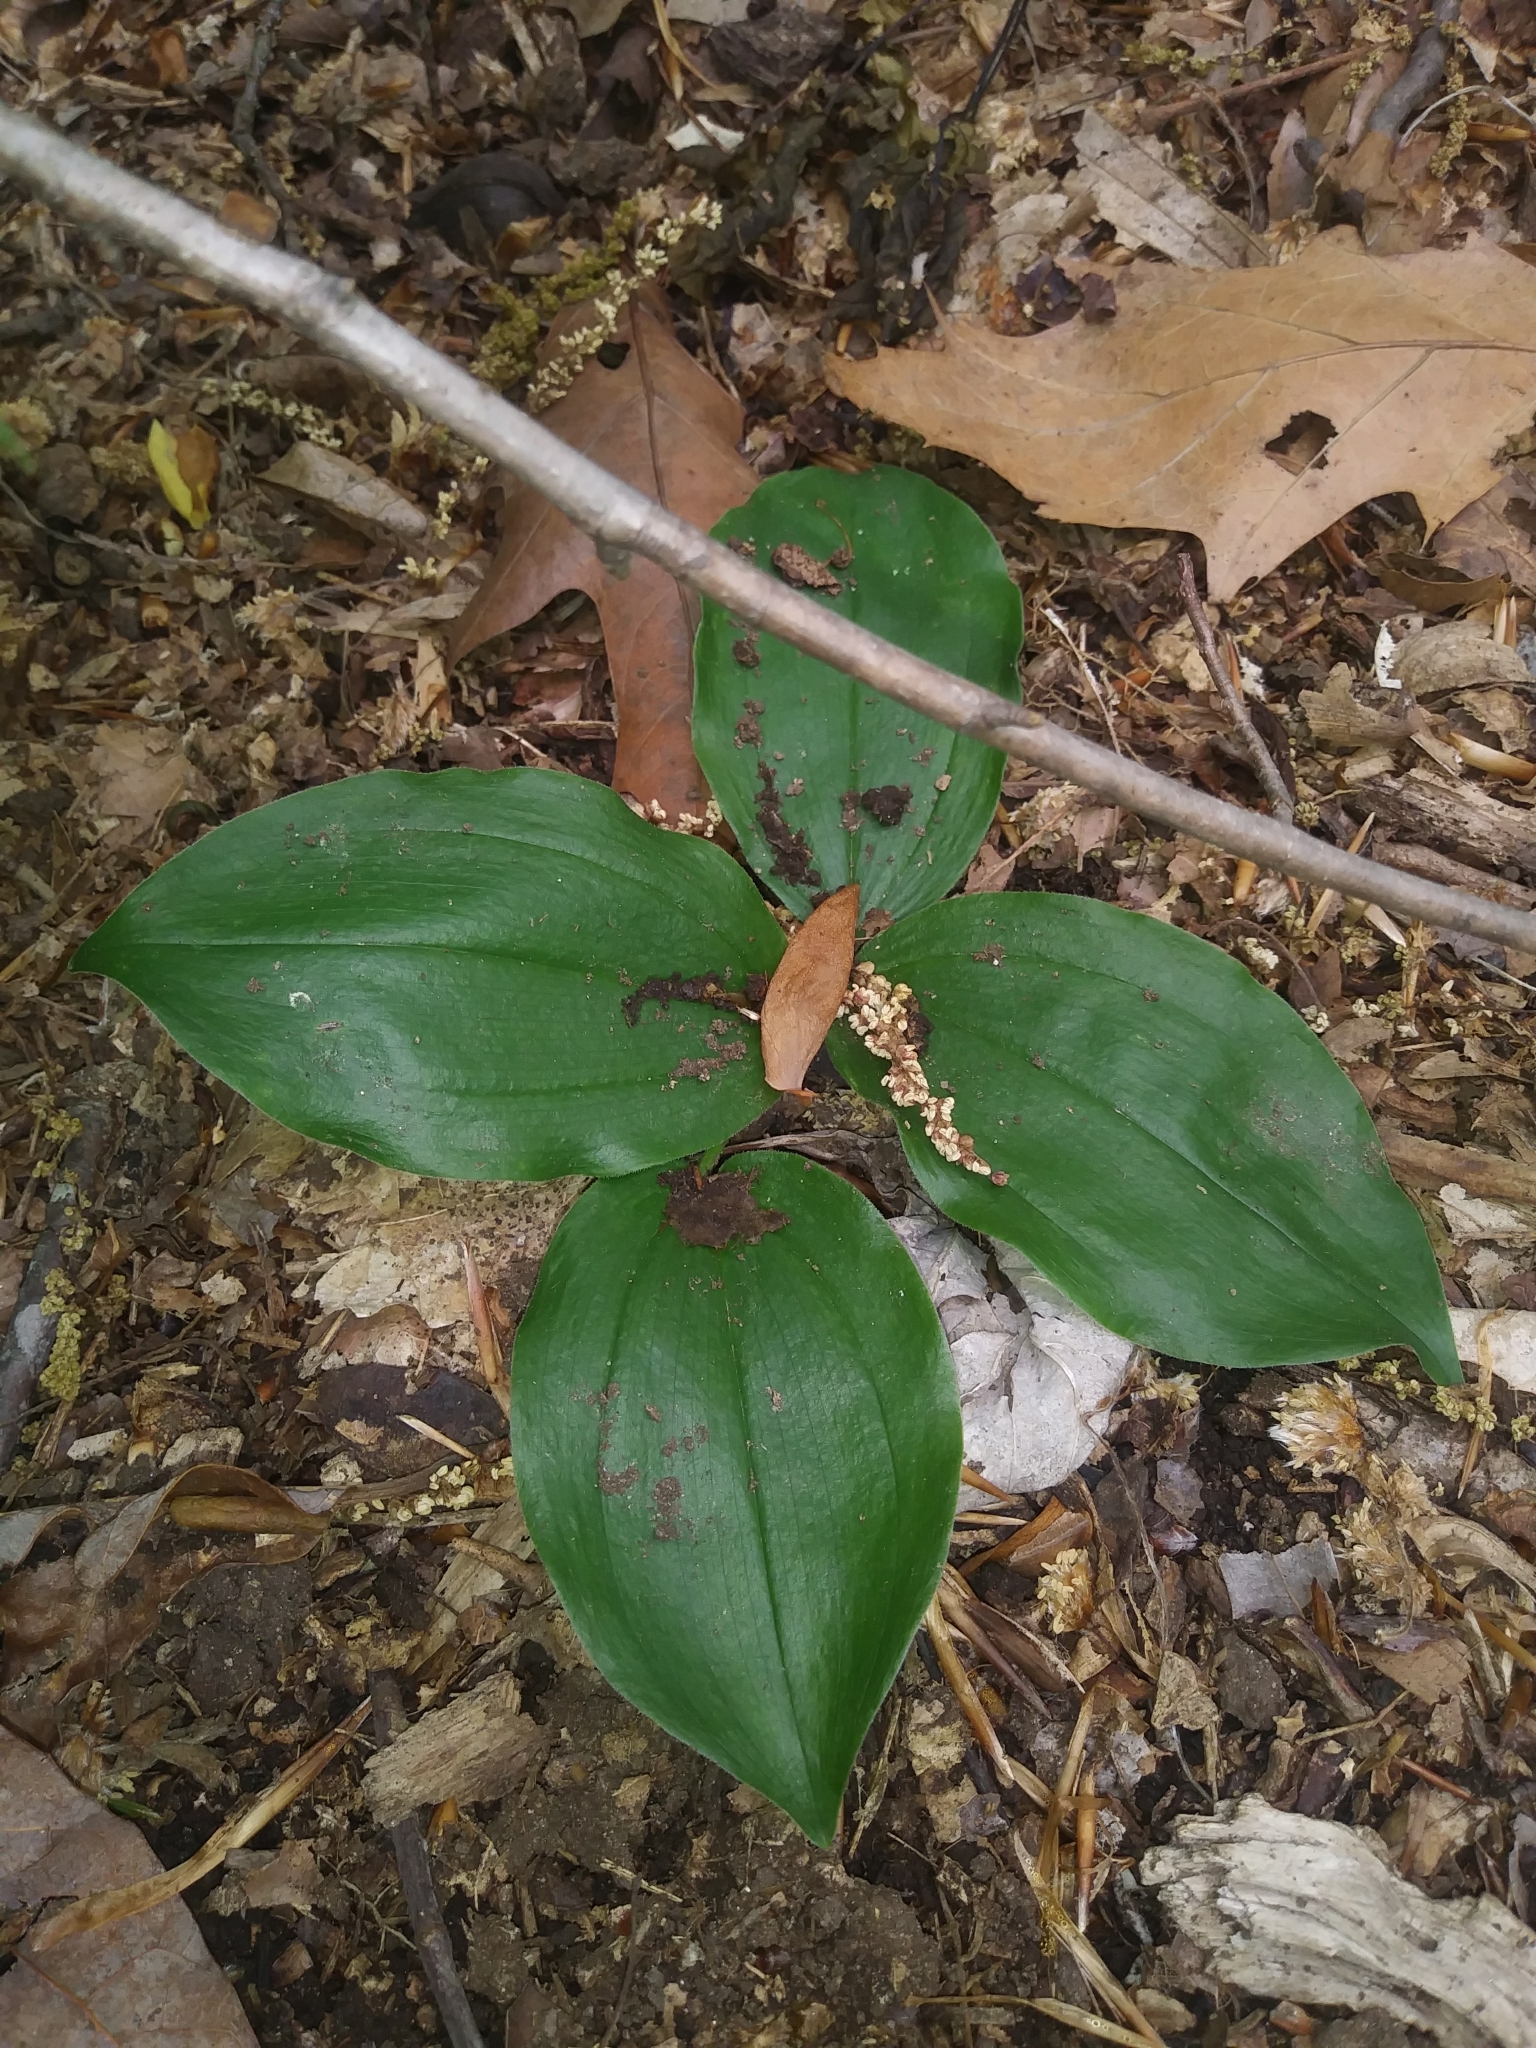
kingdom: Plantae
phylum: Tracheophyta
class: Liliopsida
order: Asparagales
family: Orchidaceae
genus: Galearis
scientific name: Galearis spectabilis
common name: Purple-hooded orchis
